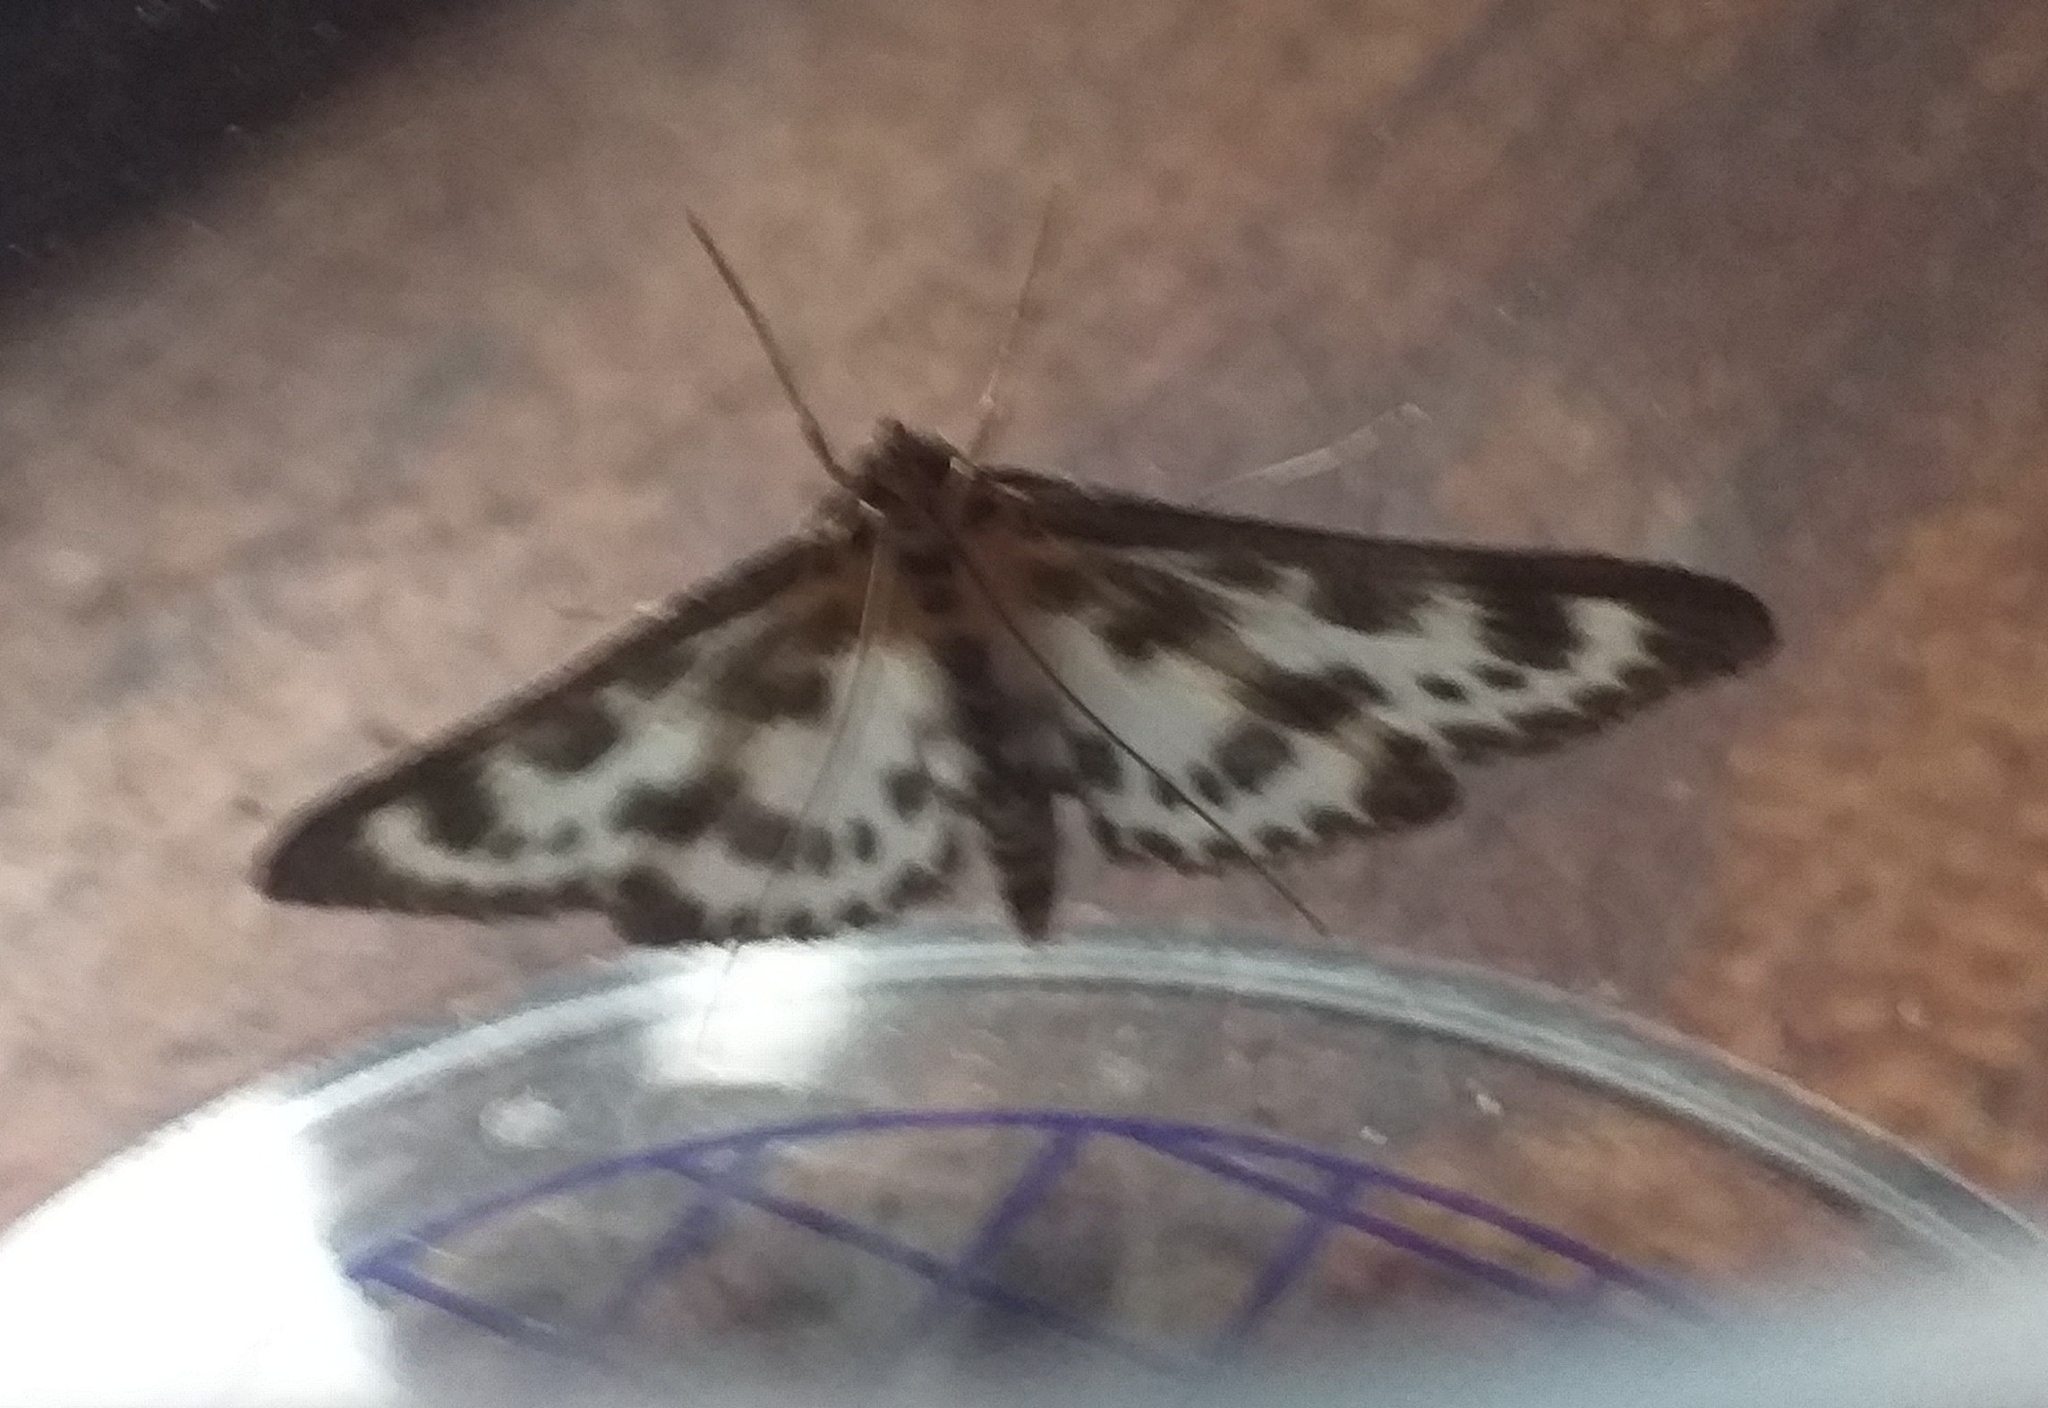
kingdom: Animalia
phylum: Arthropoda
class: Insecta
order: Lepidoptera
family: Crambidae
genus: Anania
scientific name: Anania hortulata
